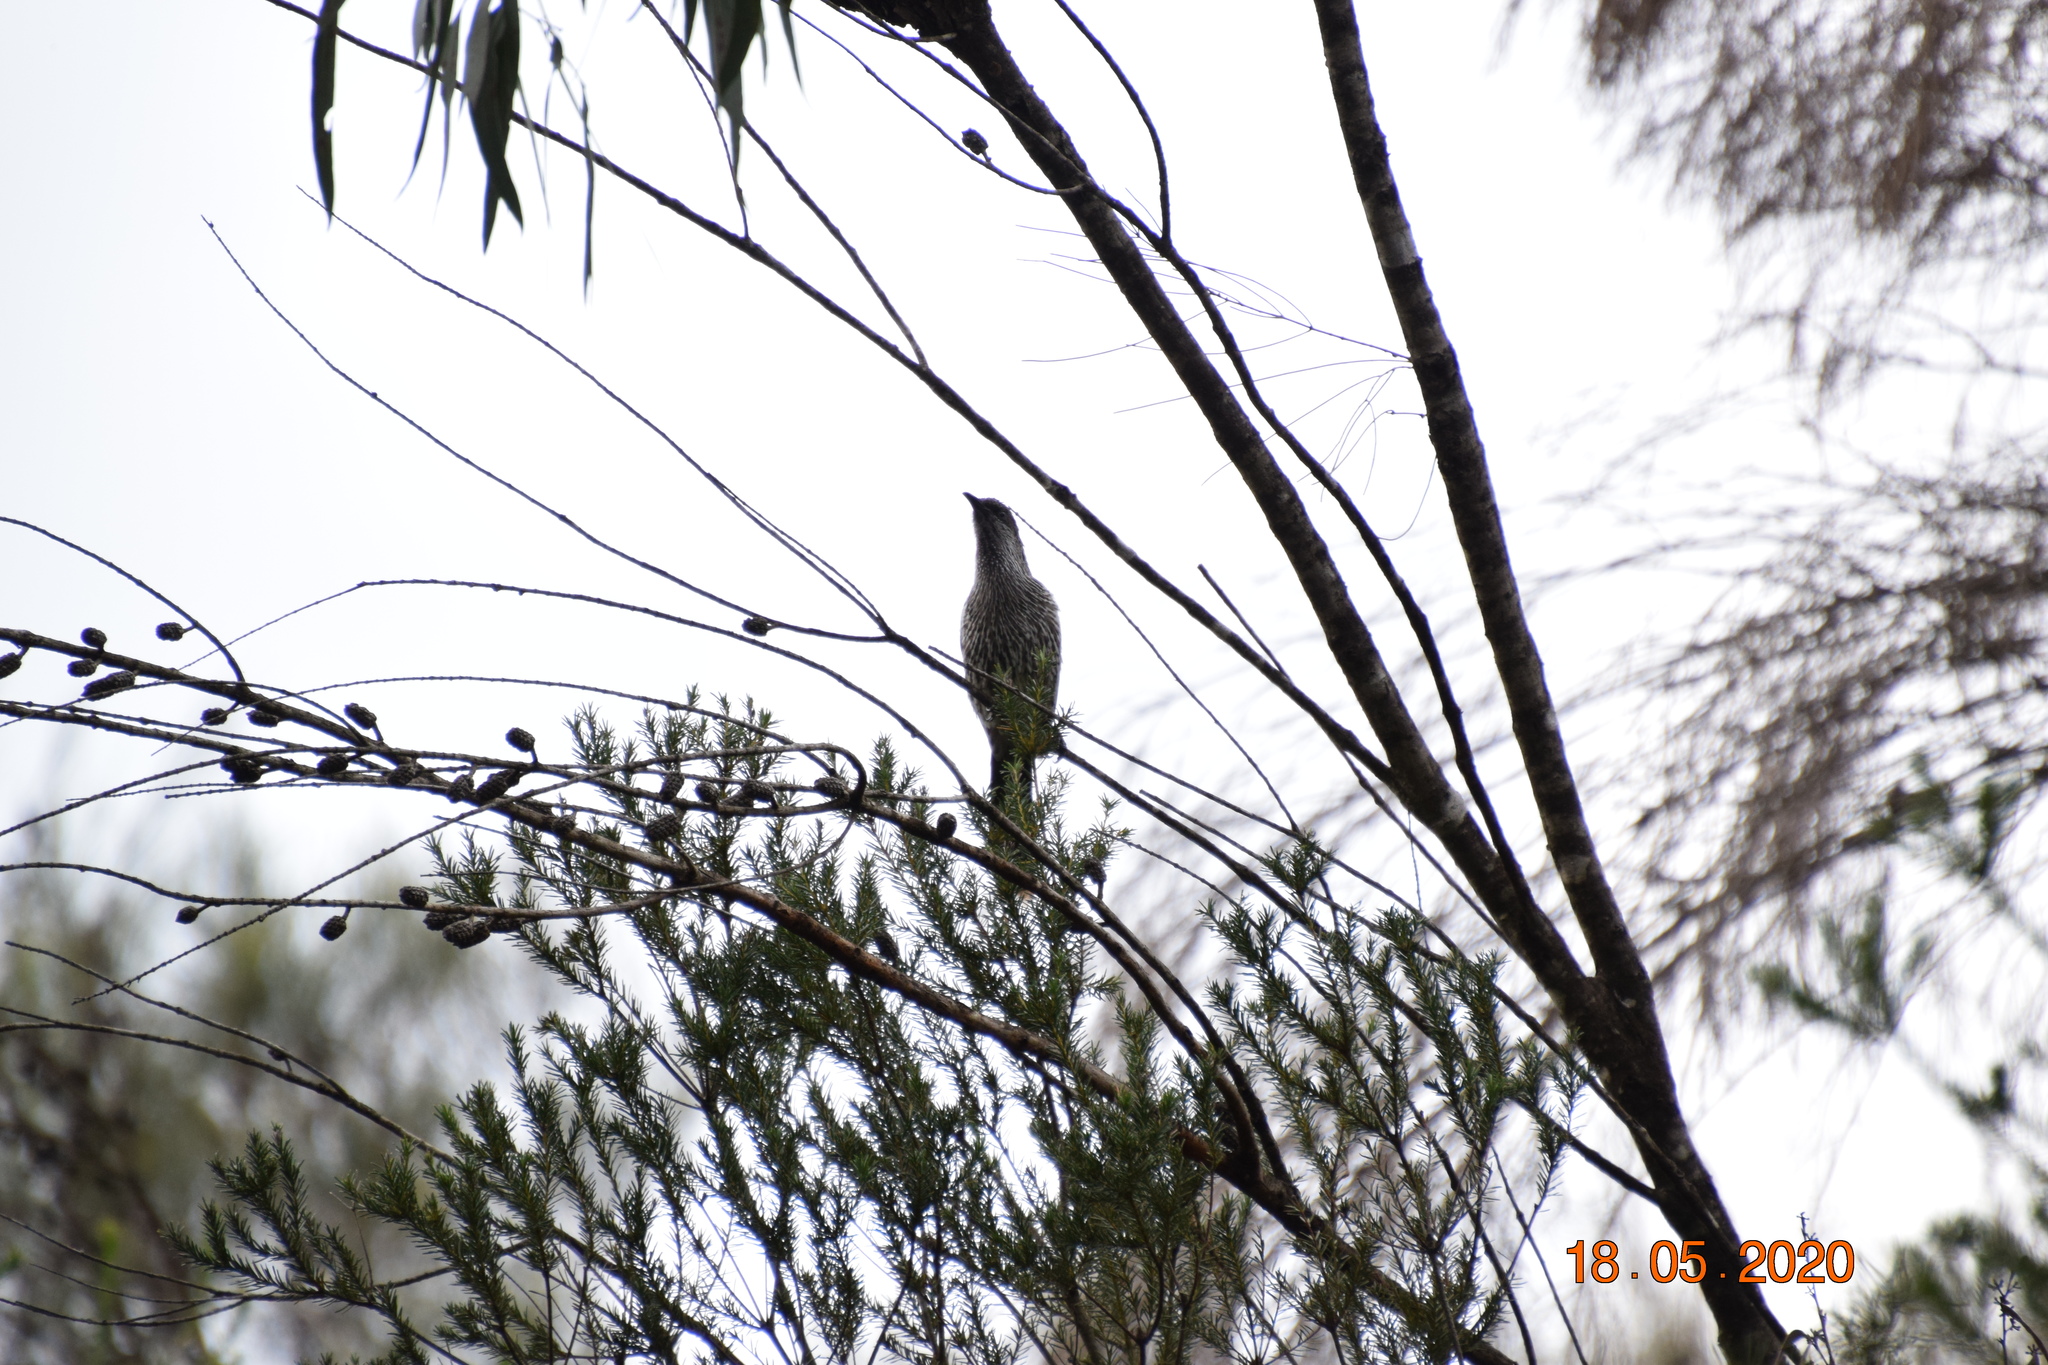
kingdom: Animalia
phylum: Chordata
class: Aves
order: Passeriformes
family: Meliphagidae
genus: Anthochaera
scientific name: Anthochaera chrysoptera
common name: Little wattlebird
